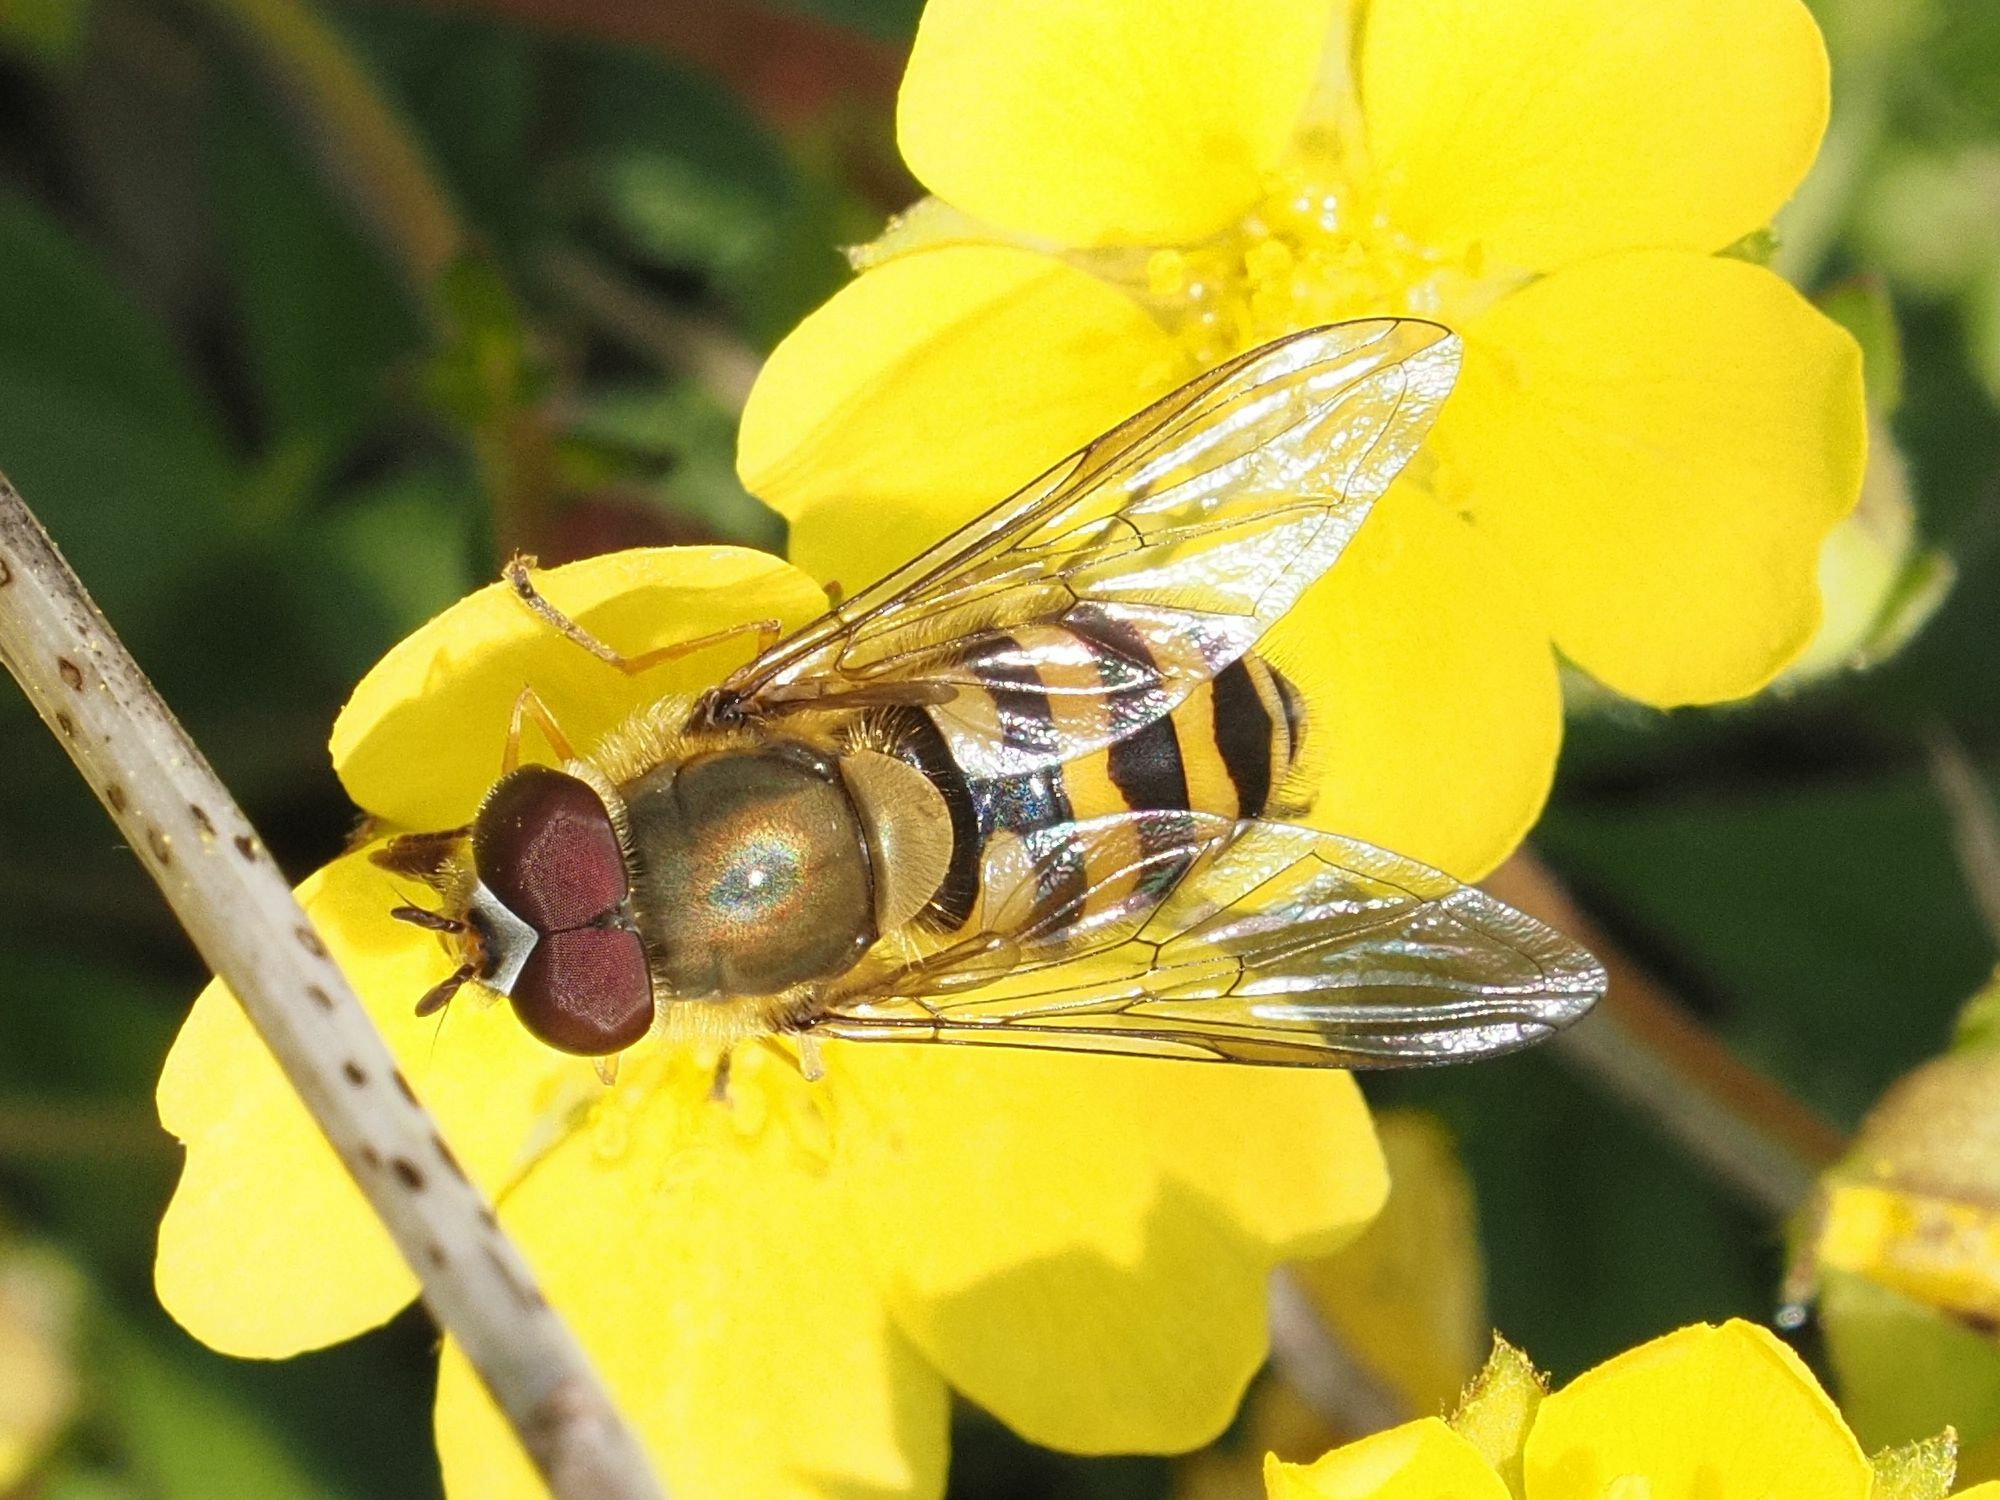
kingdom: Animalia
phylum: Arthropoda
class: Insecta
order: Diptera
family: Syrphidae
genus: Syrphus
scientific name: Syrphus torvus
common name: Hairy-eyed flower fly
